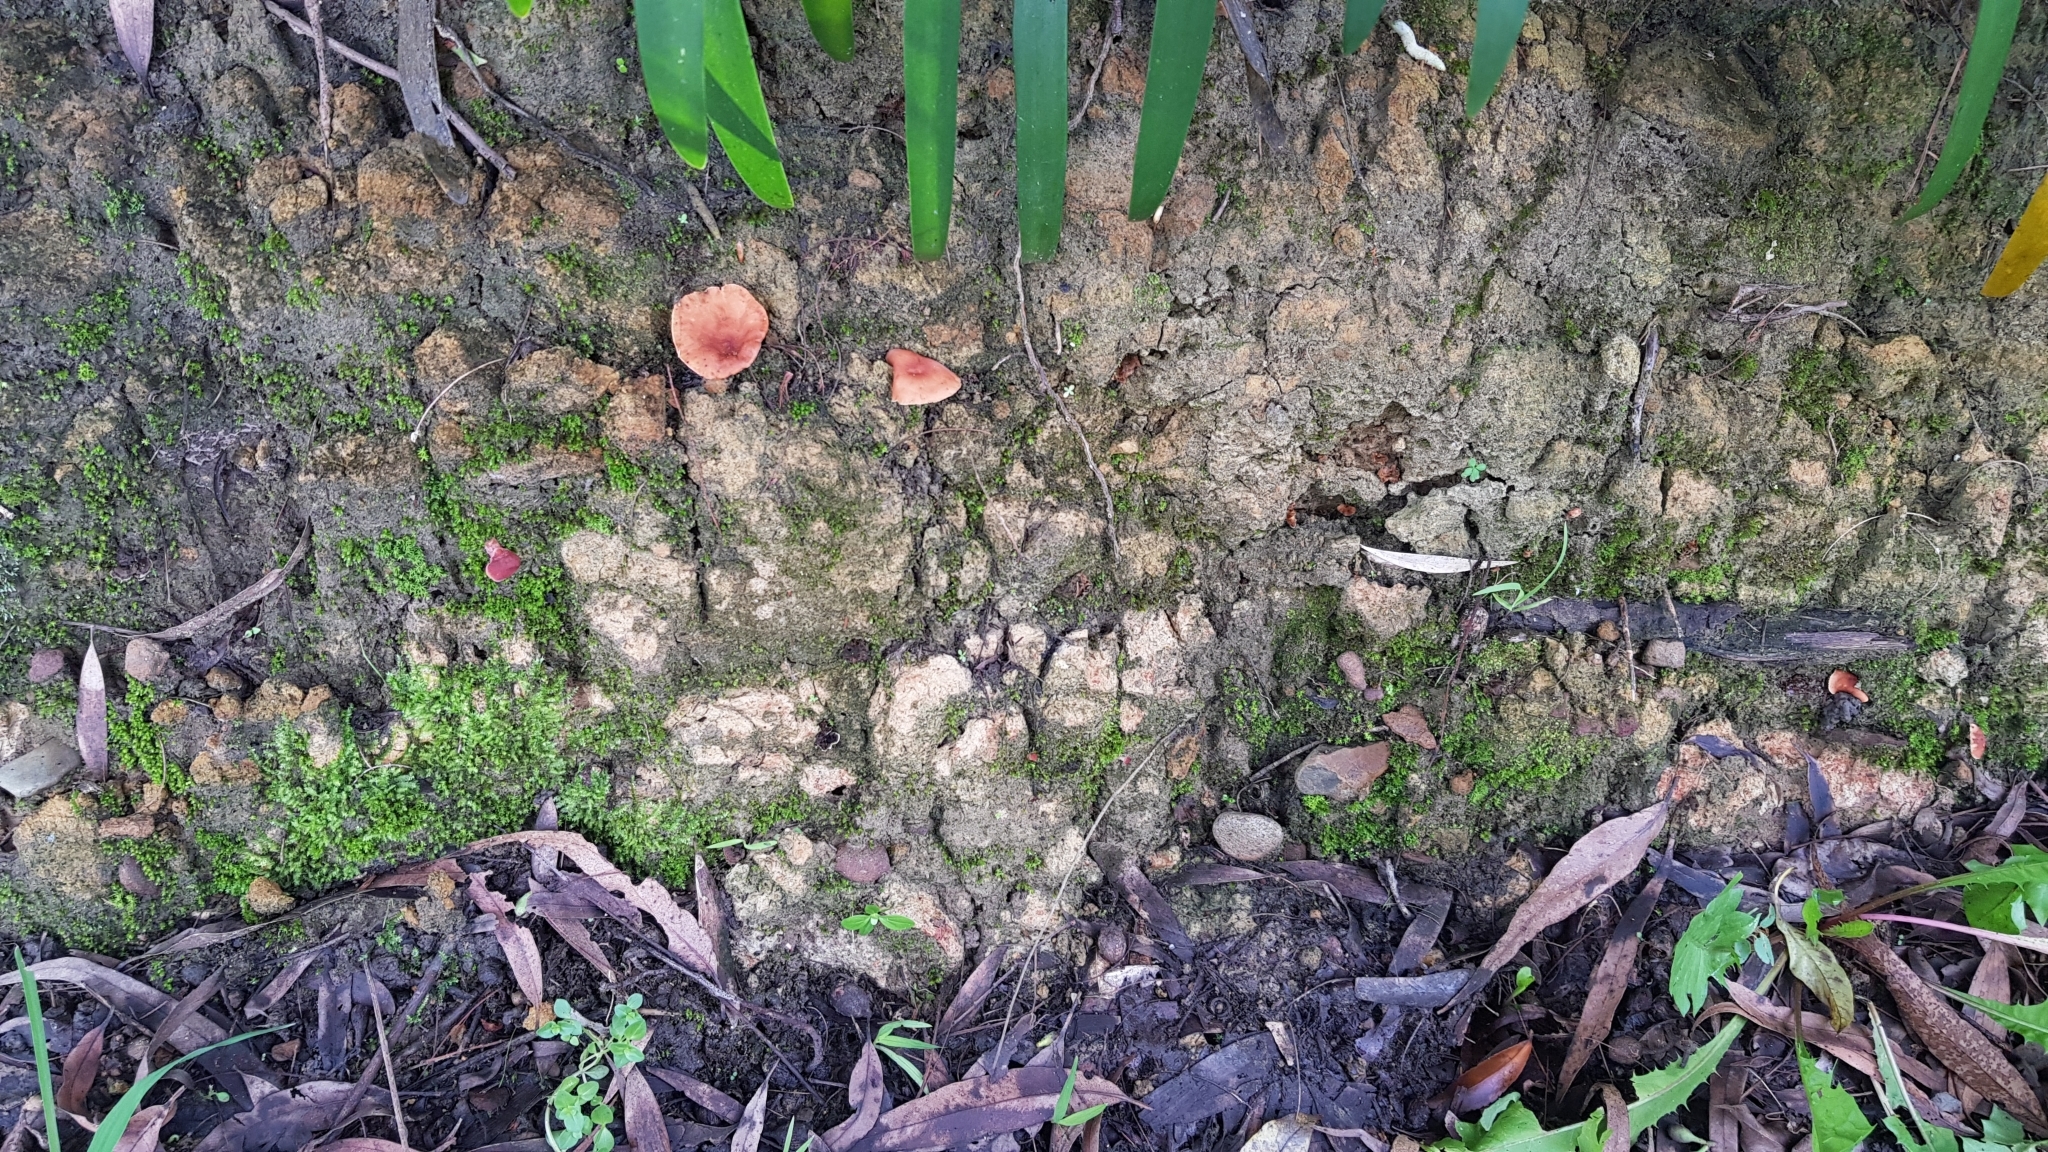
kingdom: Fungi
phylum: Basidiomycota
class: Agaricomycetes
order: Russulales
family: Russulaceae
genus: Lactarius
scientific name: Lactarius eucalypti
